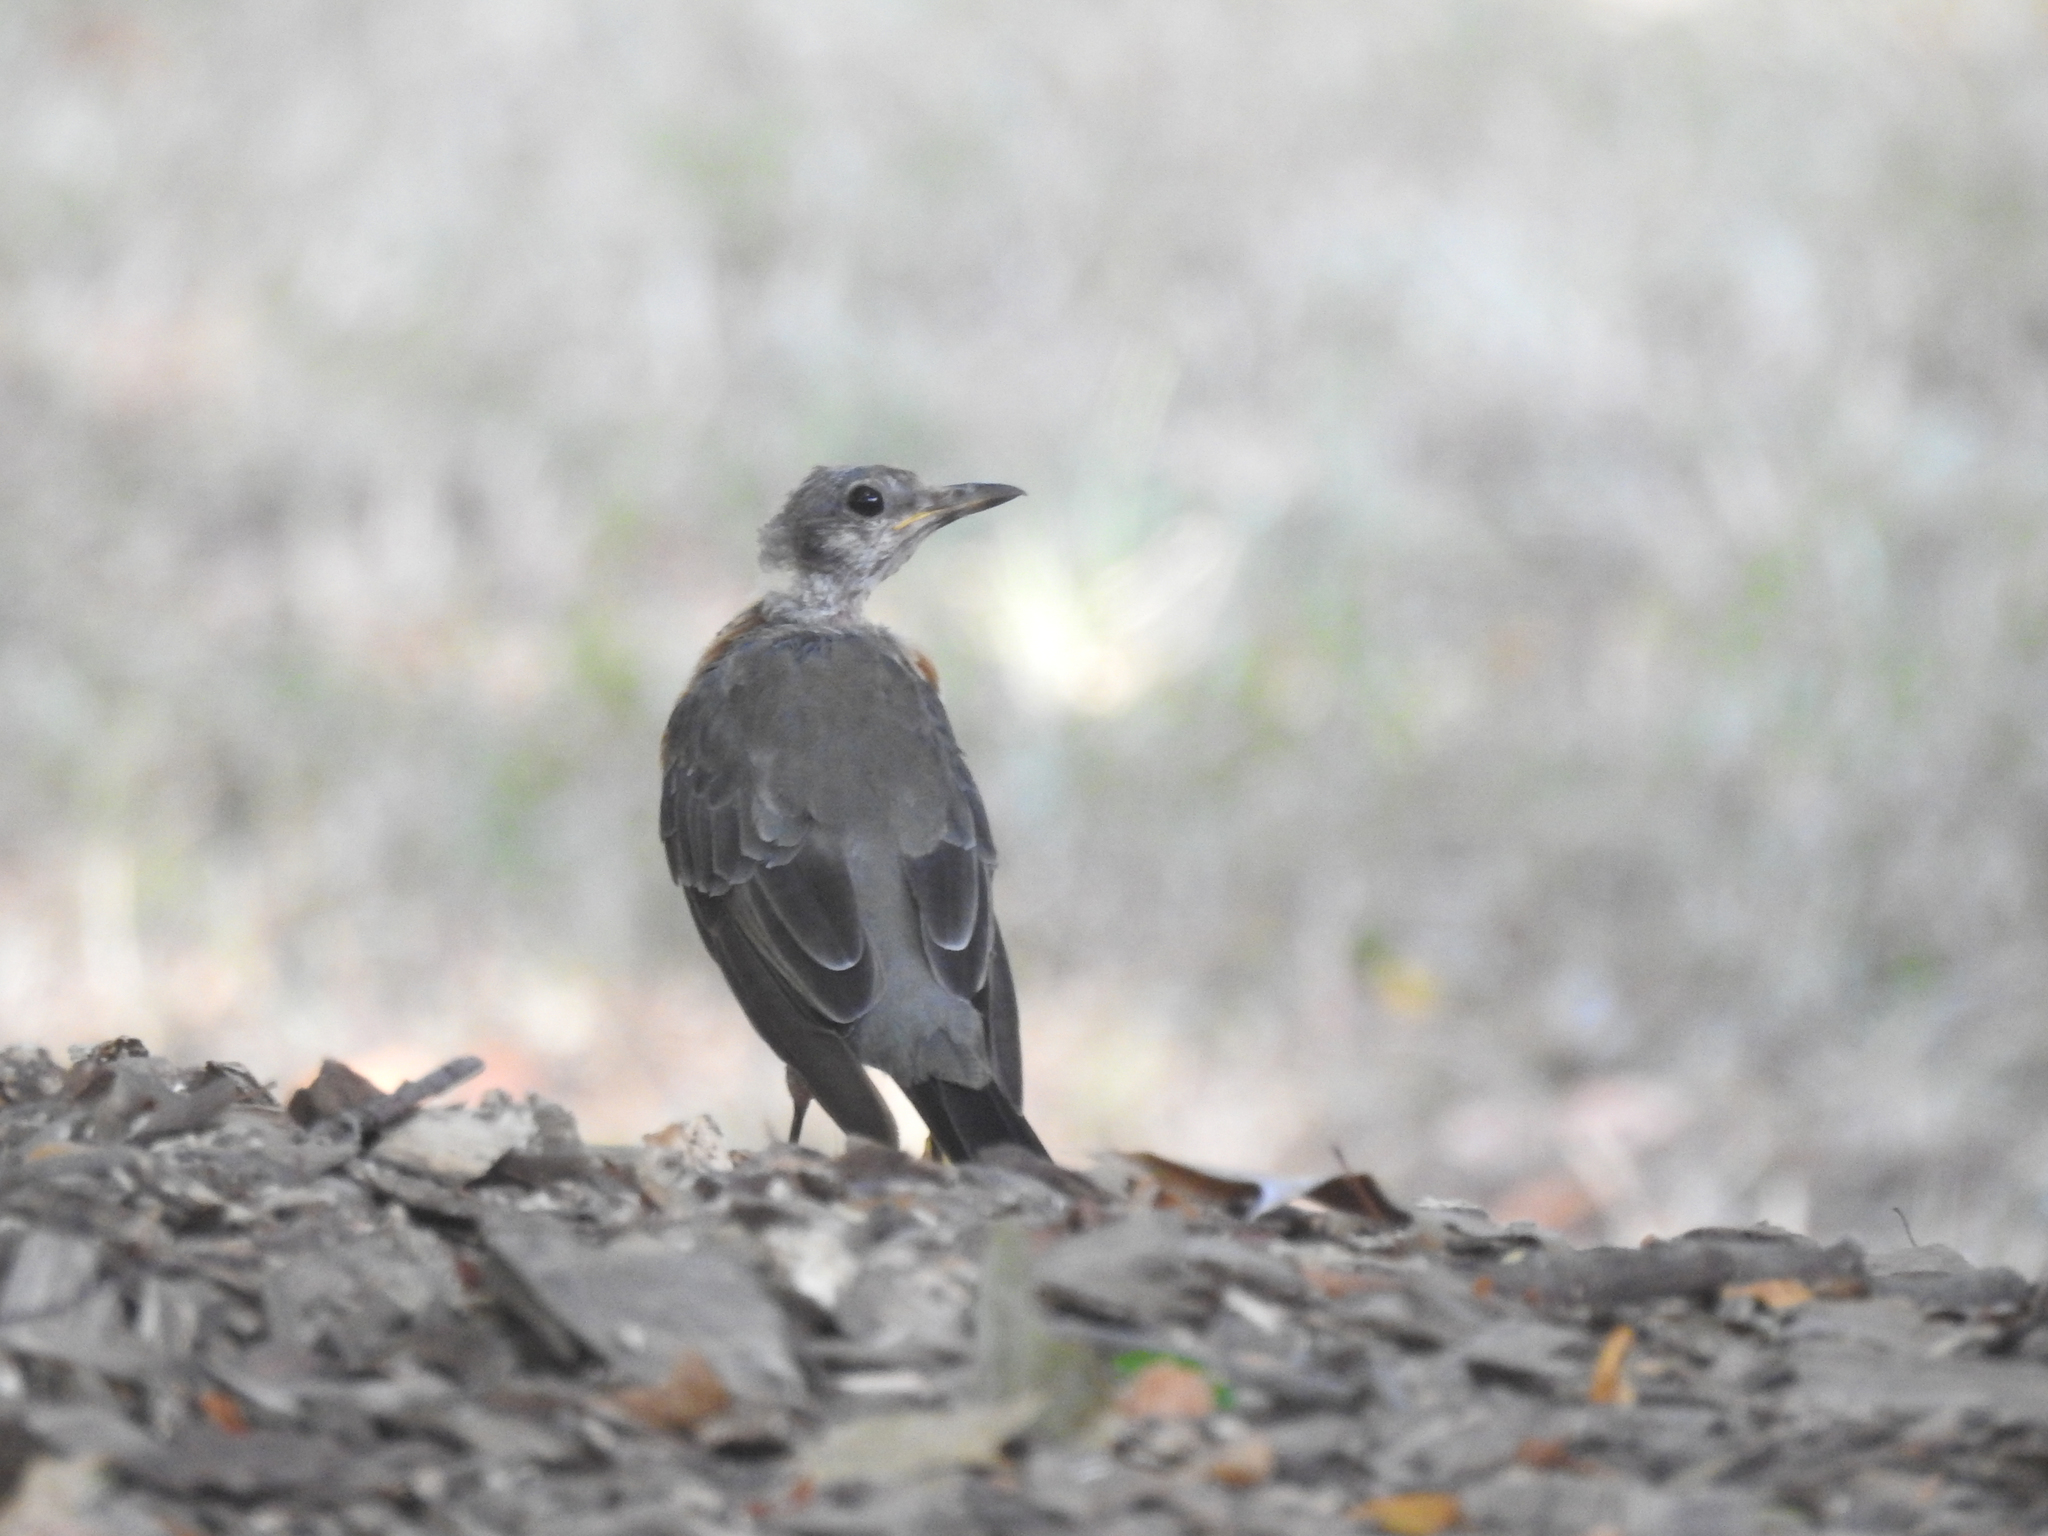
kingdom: Animalia
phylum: Chordata
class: Aves
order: Passeriformes
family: Turdidae
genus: Turdus
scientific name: Turdus migratorius
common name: American robin
